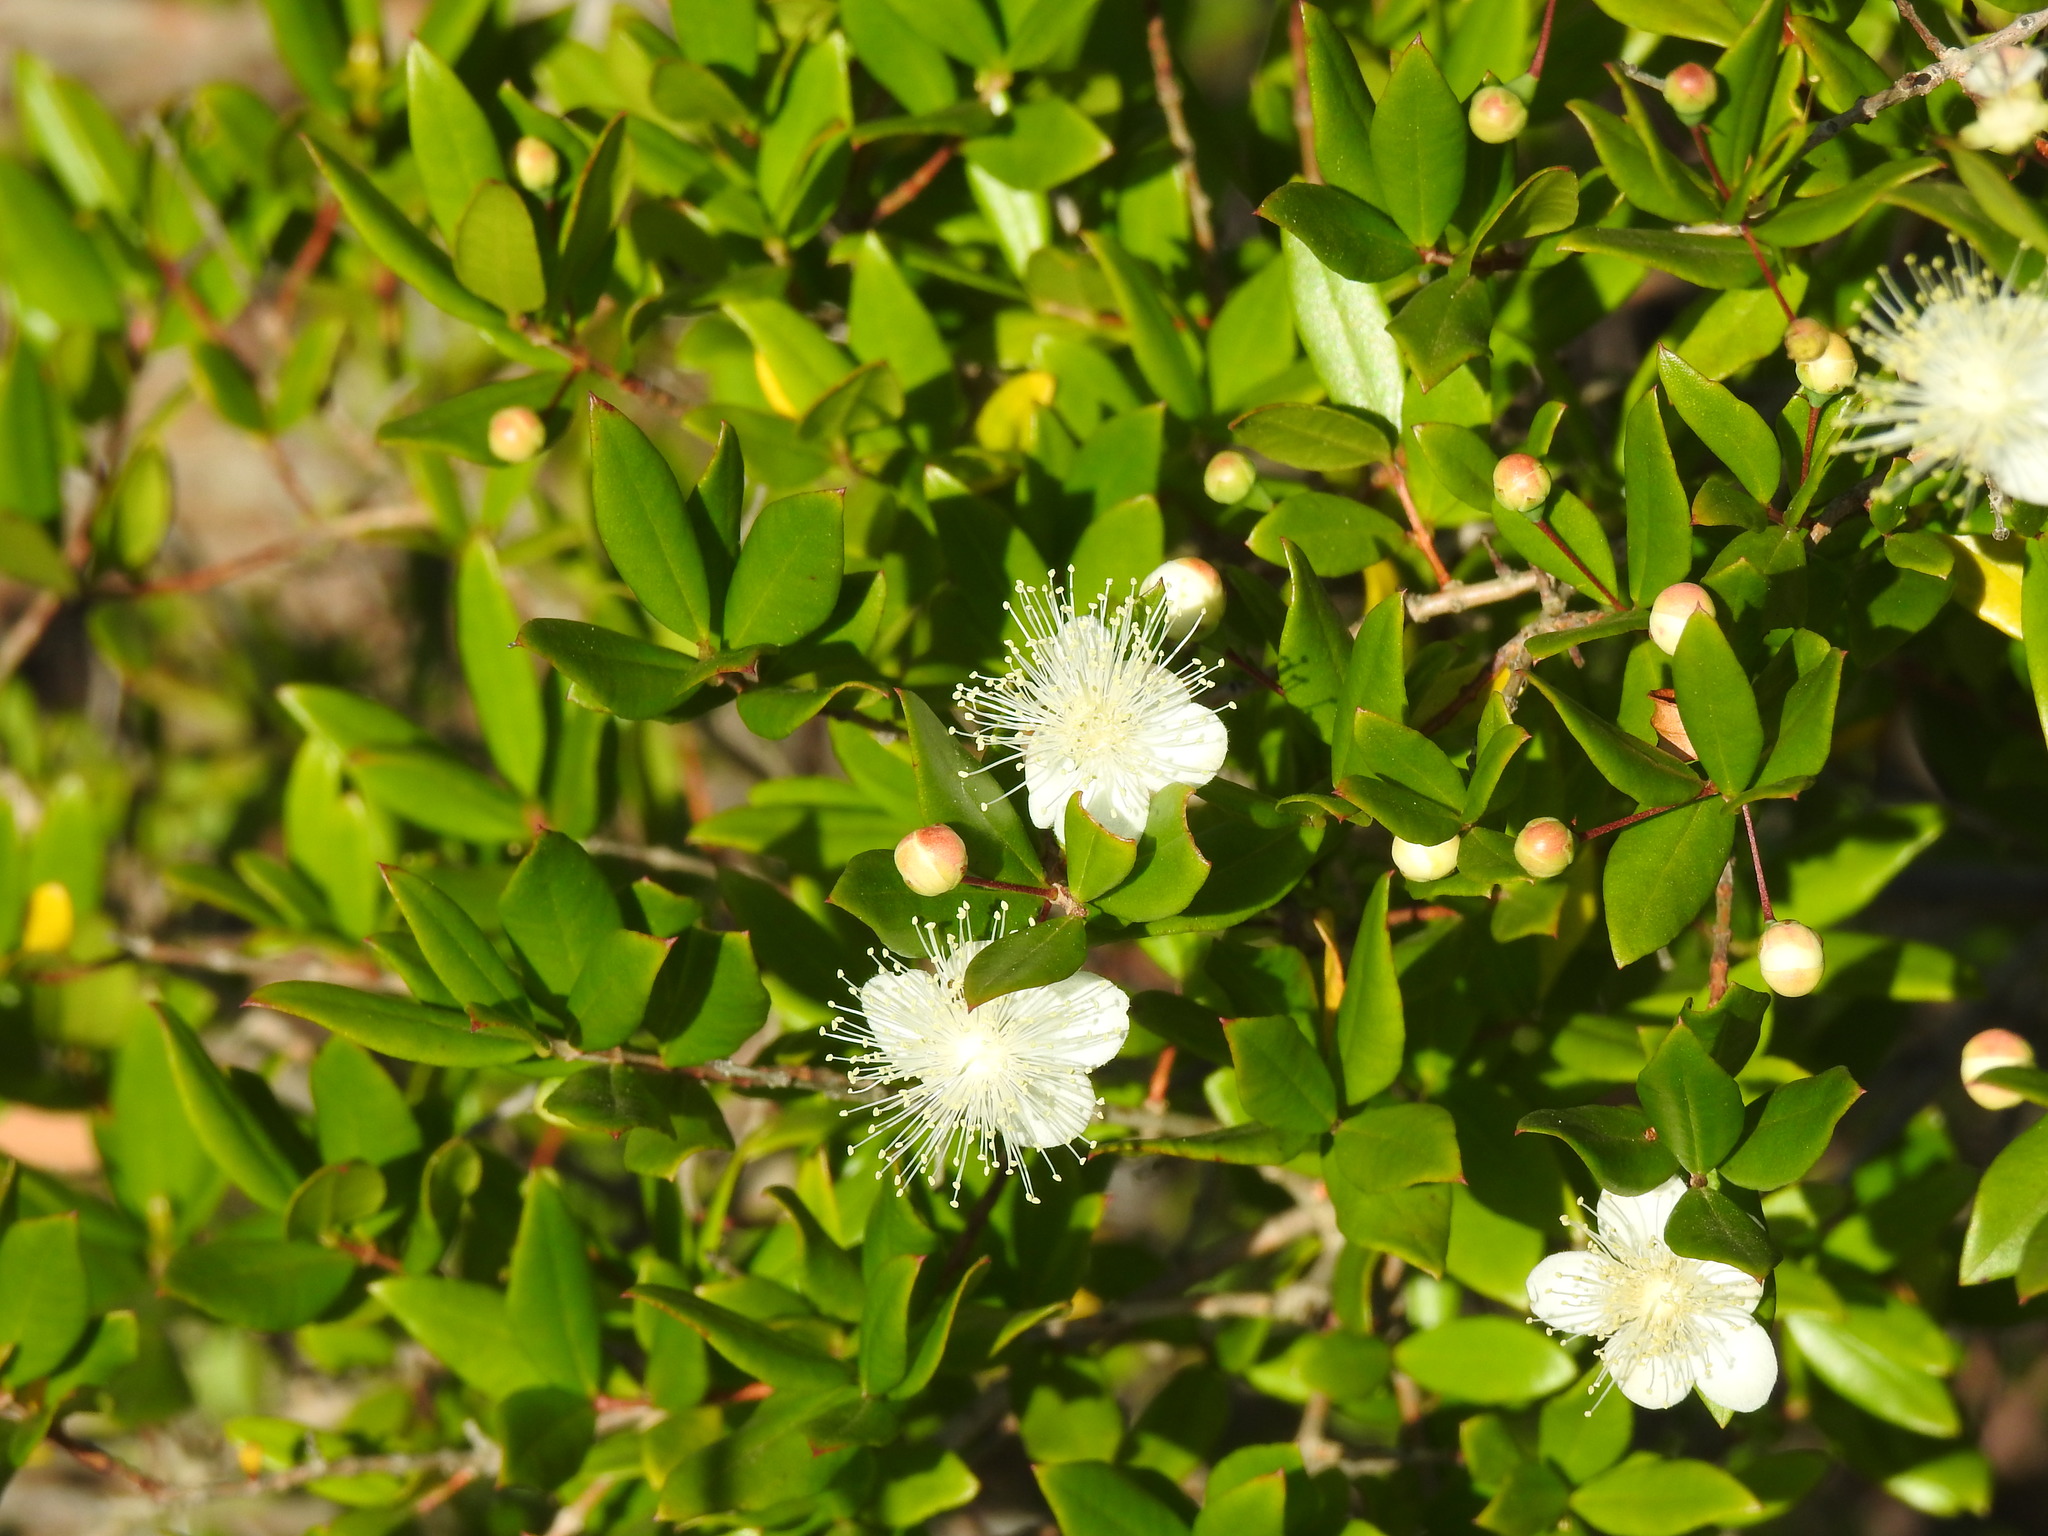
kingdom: Plantae
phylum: Tracheophyta
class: Magnoliopsida
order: Myrtales
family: Myrtaceae
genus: Myrtus
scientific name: Myrtus communis
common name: Myrtle
